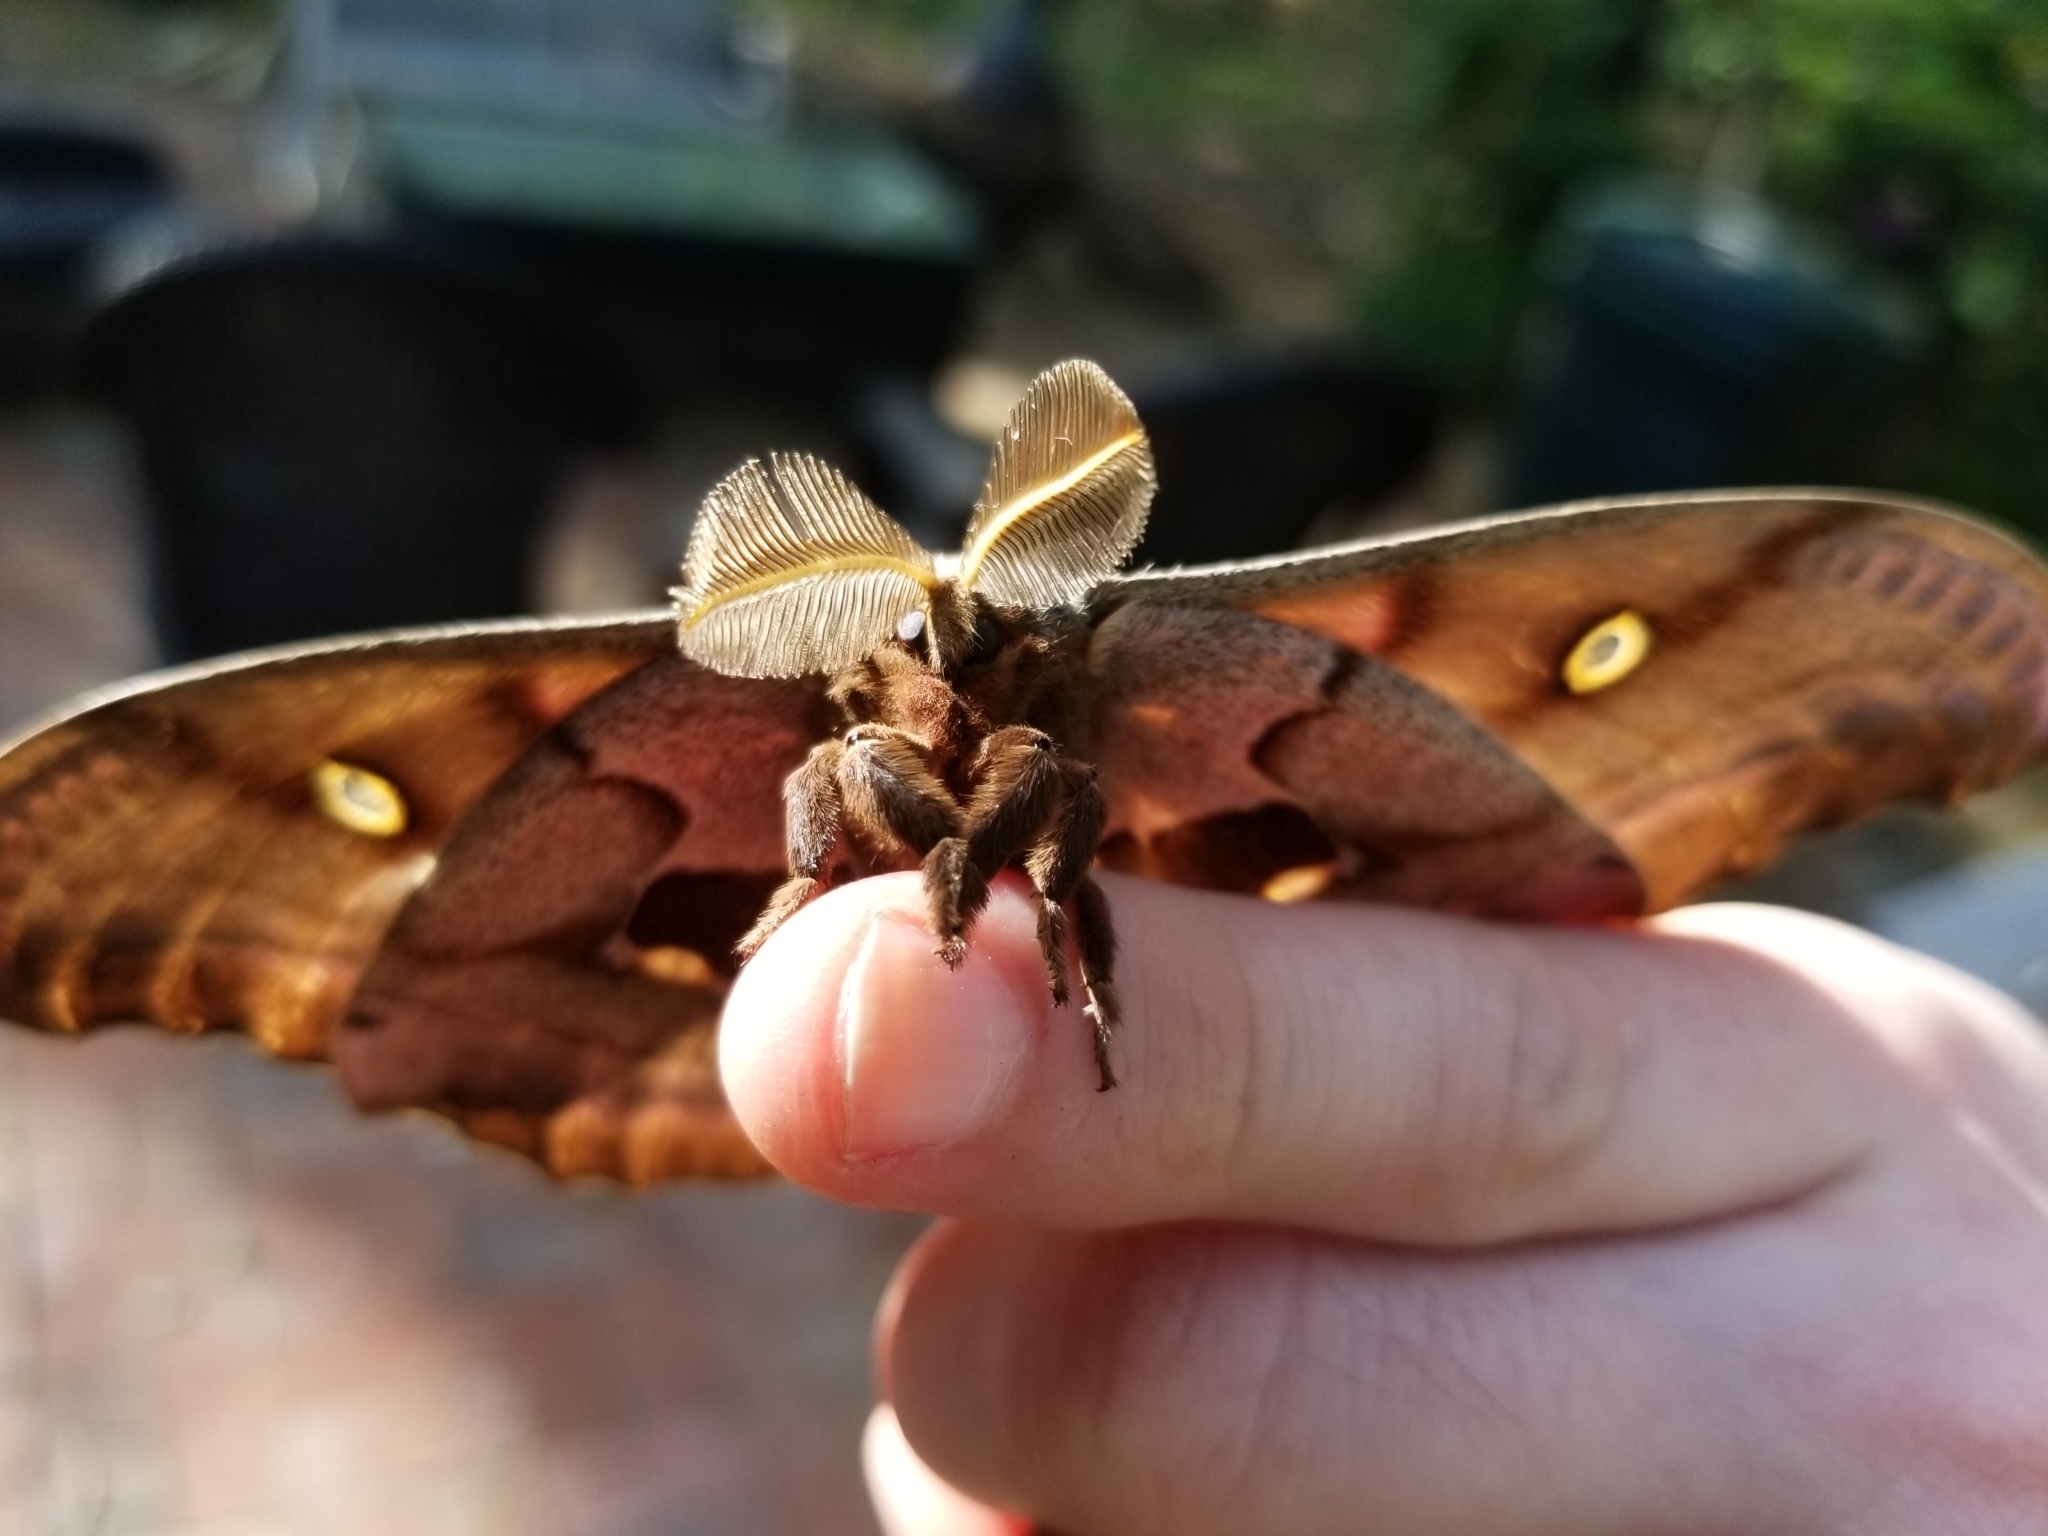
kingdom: Animalia
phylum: Arthropoda
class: Insecta
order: Lepidoptera
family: Saturniidae
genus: Antheraea
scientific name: Antheraea polyphemus
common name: Polyphemus moth
